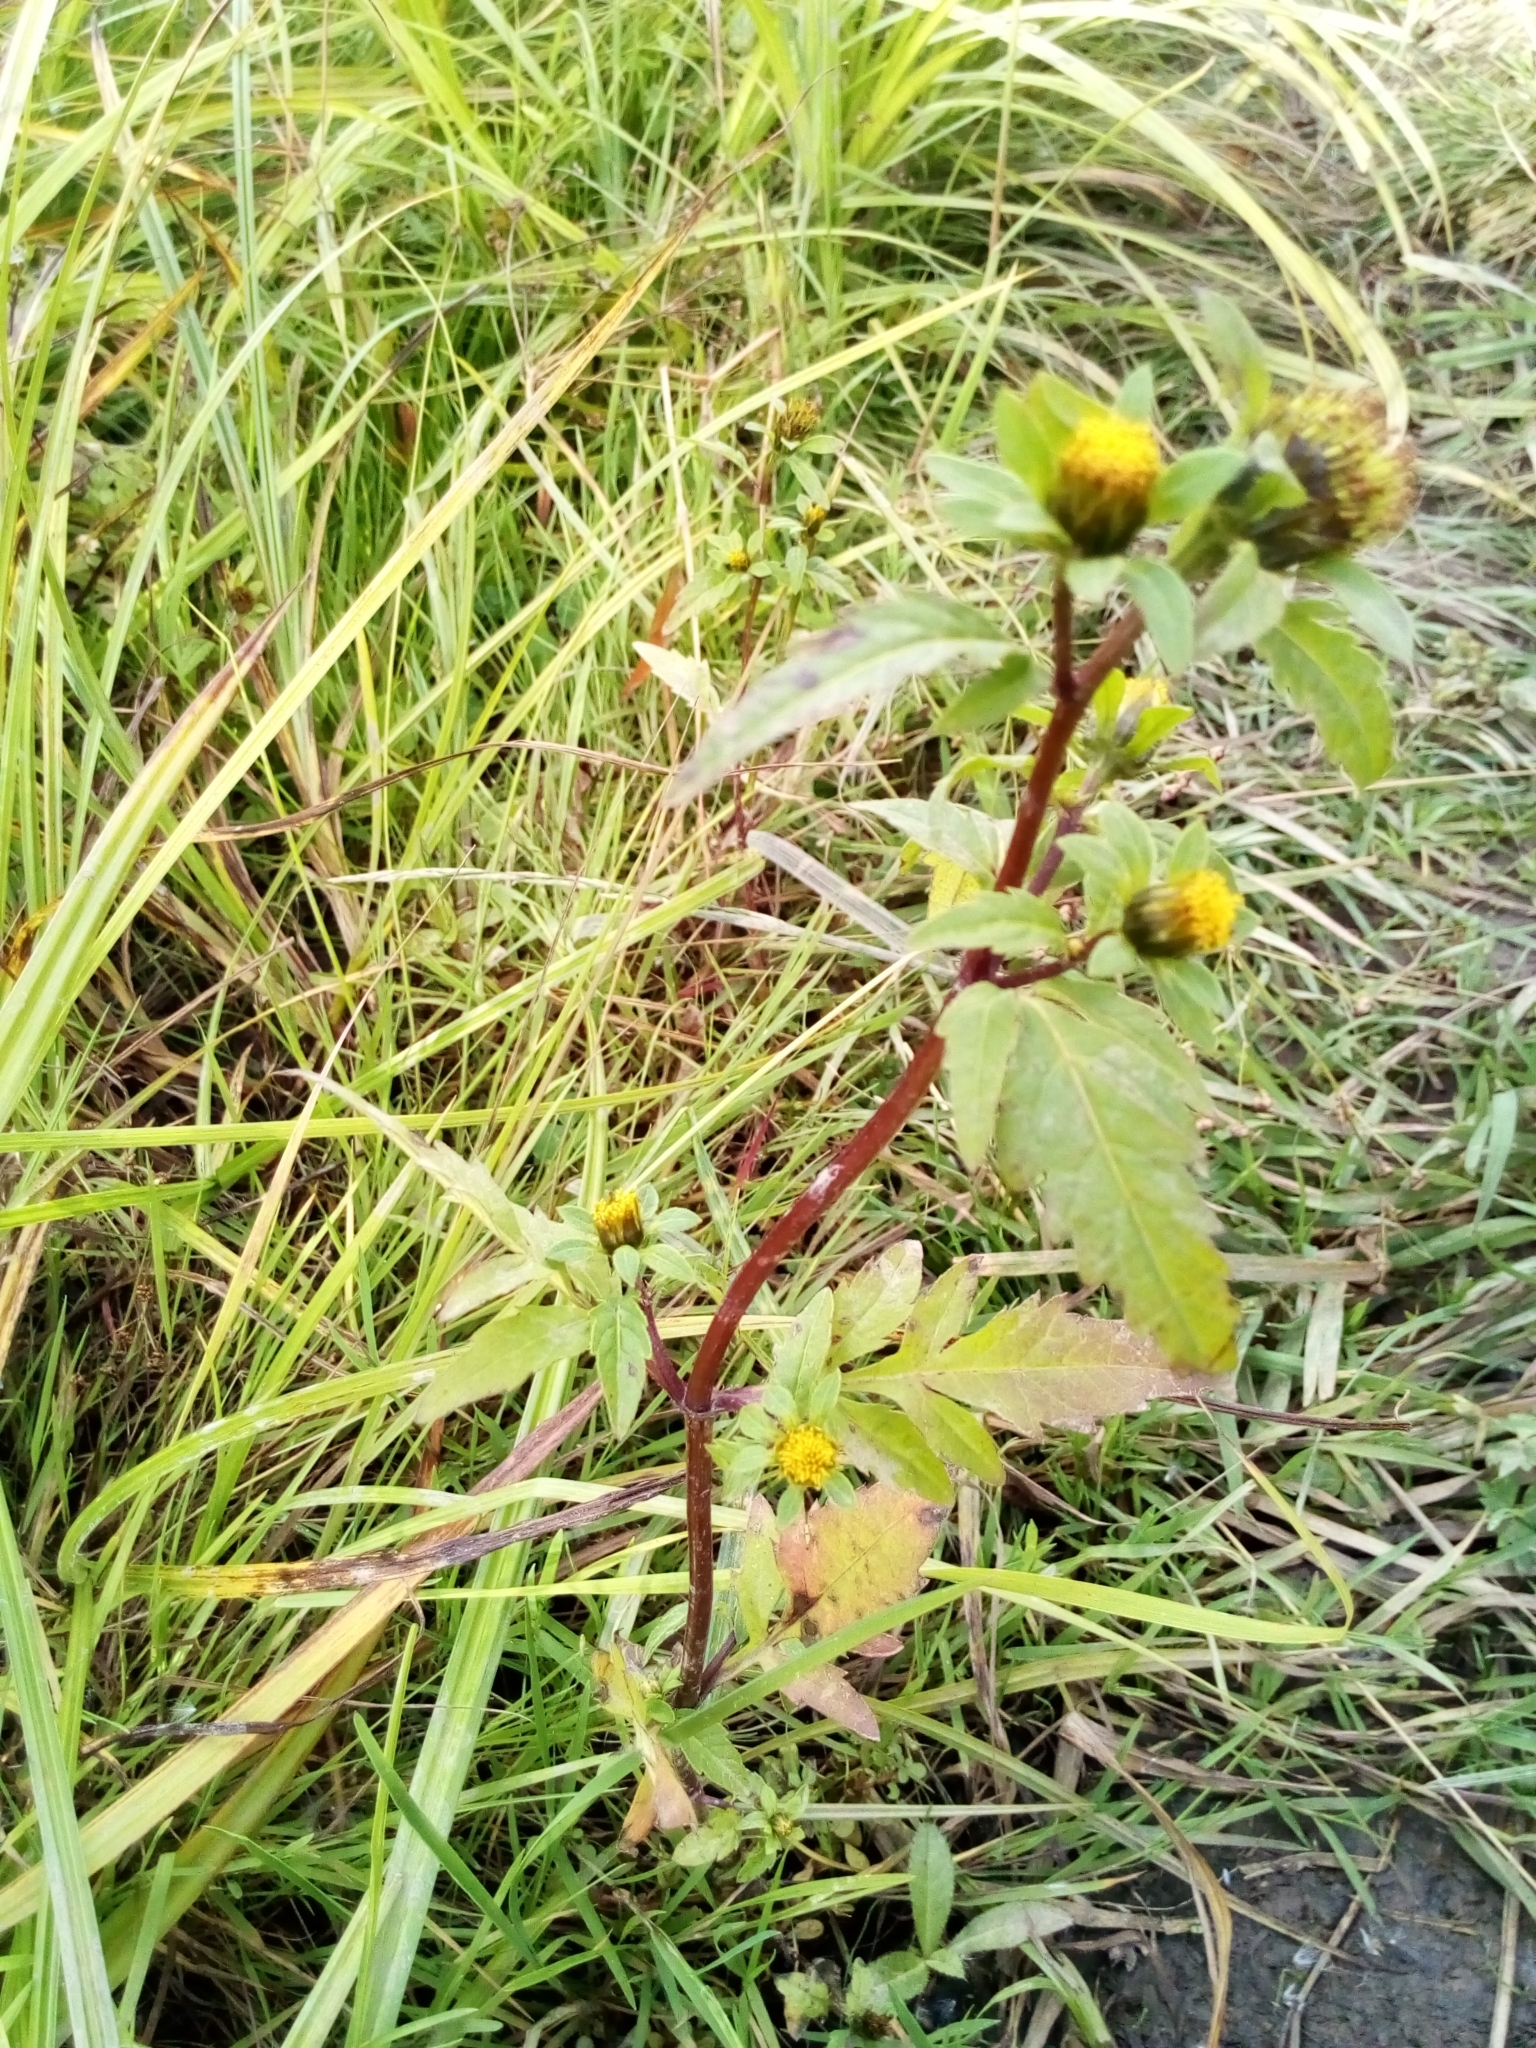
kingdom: Plantae
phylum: Tracheophyta
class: Magnoliopsida
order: Asterales
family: Asteraceae
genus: Bidens
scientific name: Bidens tripartita
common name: Trifid bur-marigold
